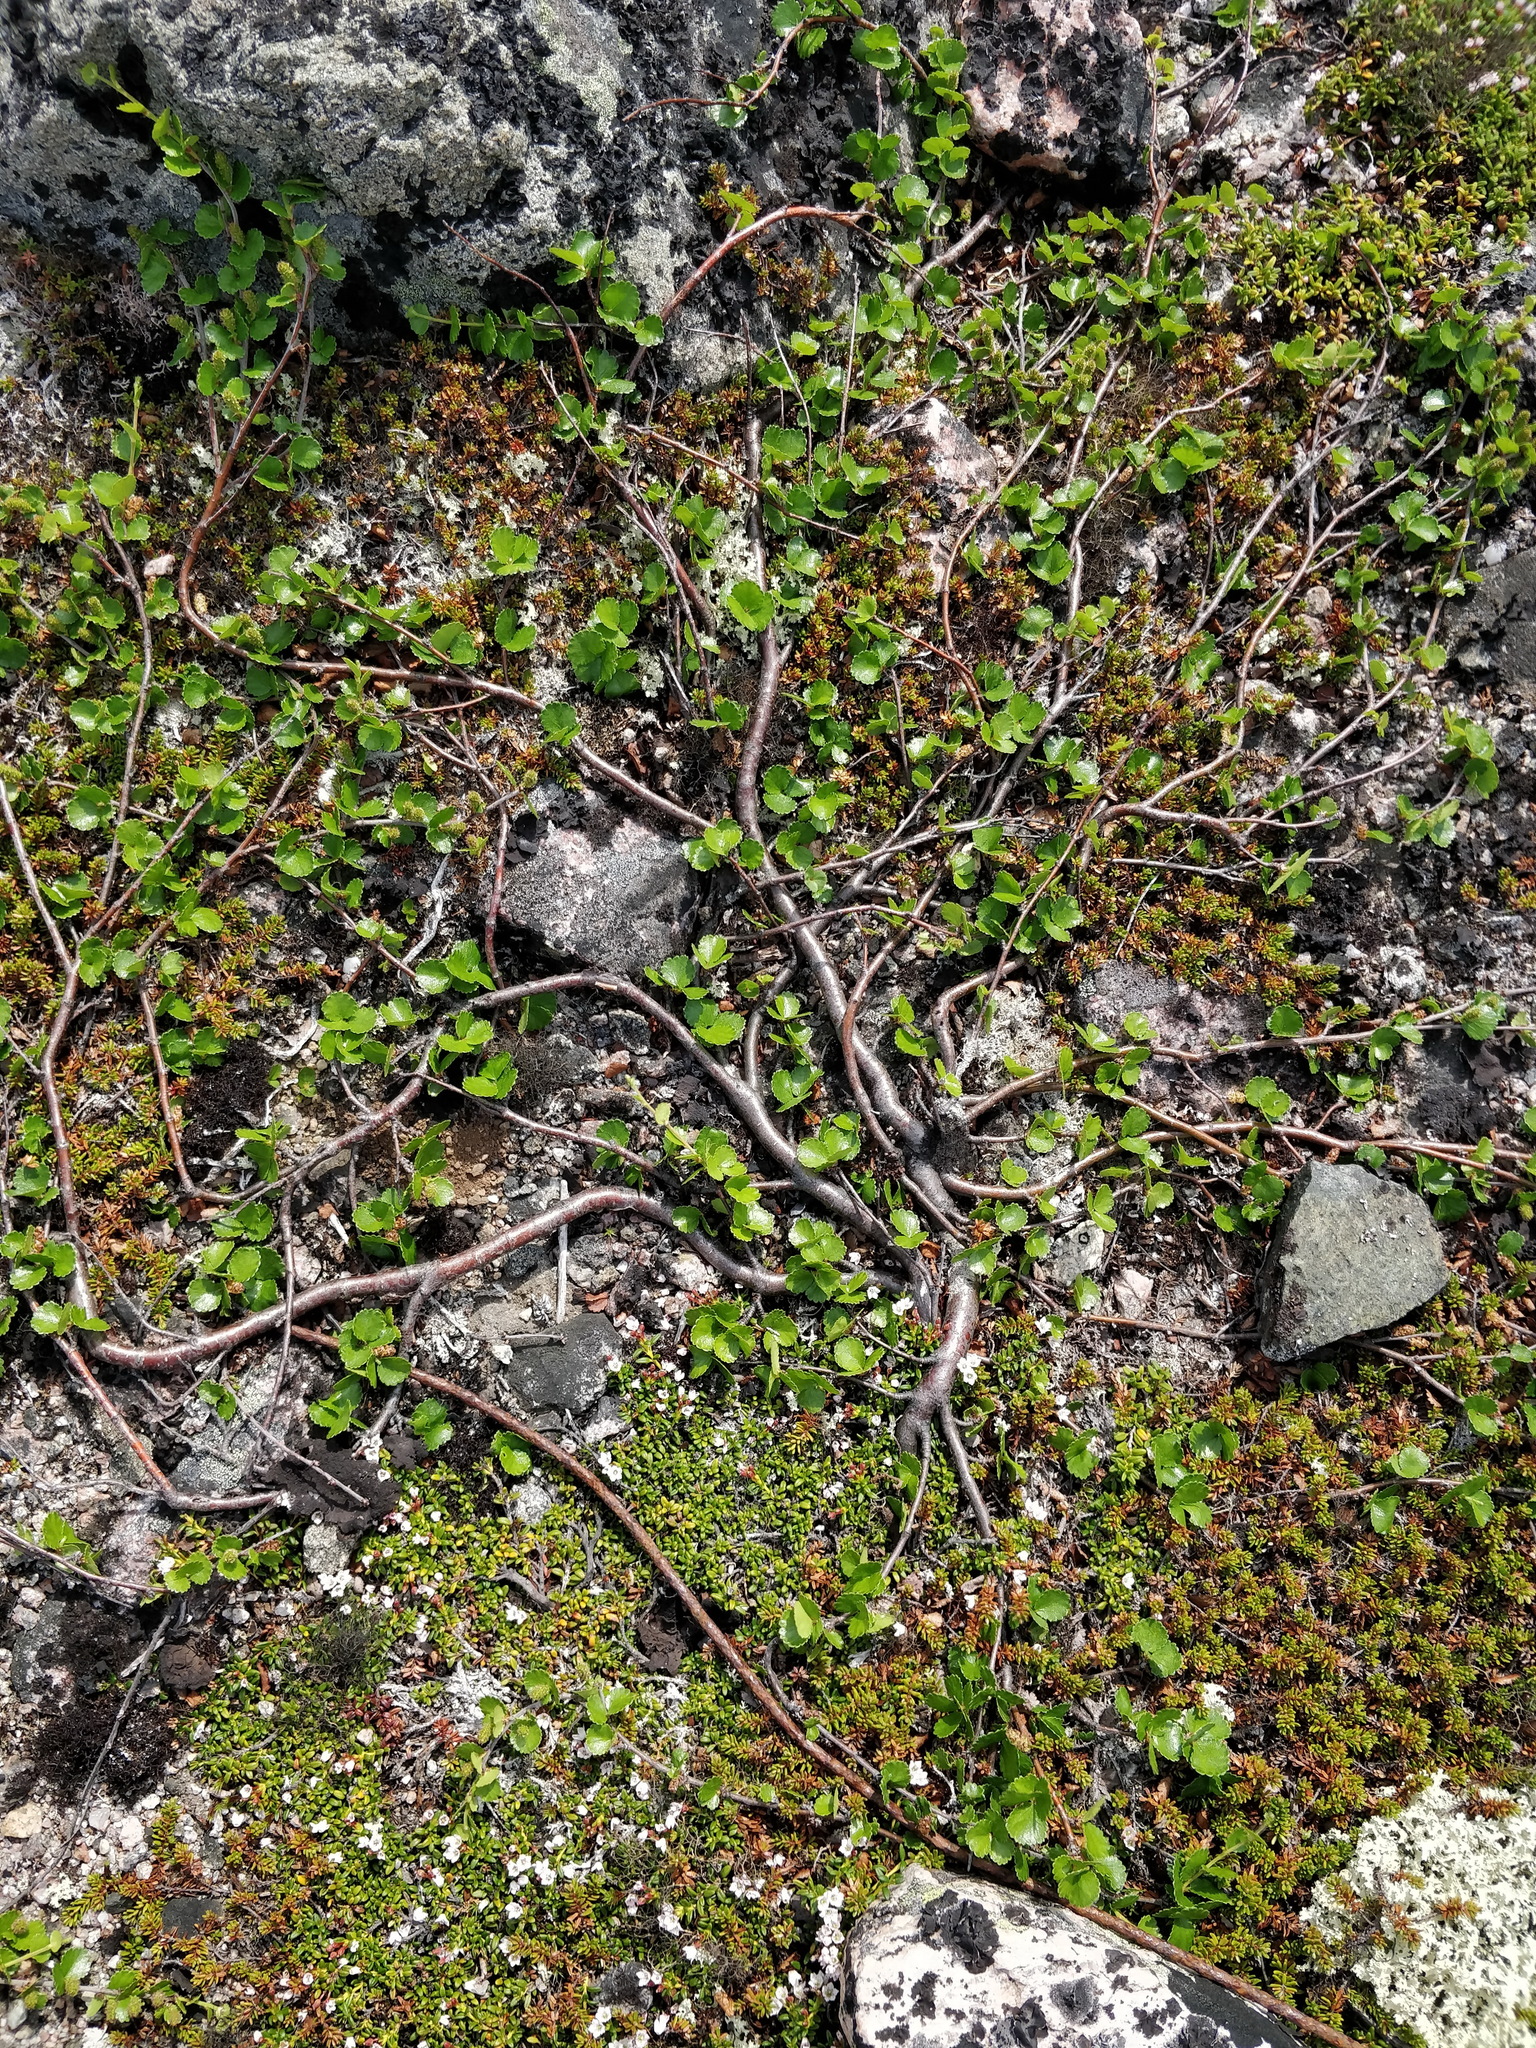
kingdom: Plantae
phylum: Tracheophyta
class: Magnoliopsida
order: Fagales
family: Betulaceae
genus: Betula
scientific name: Betula nana
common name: Arctic dwarf birch
